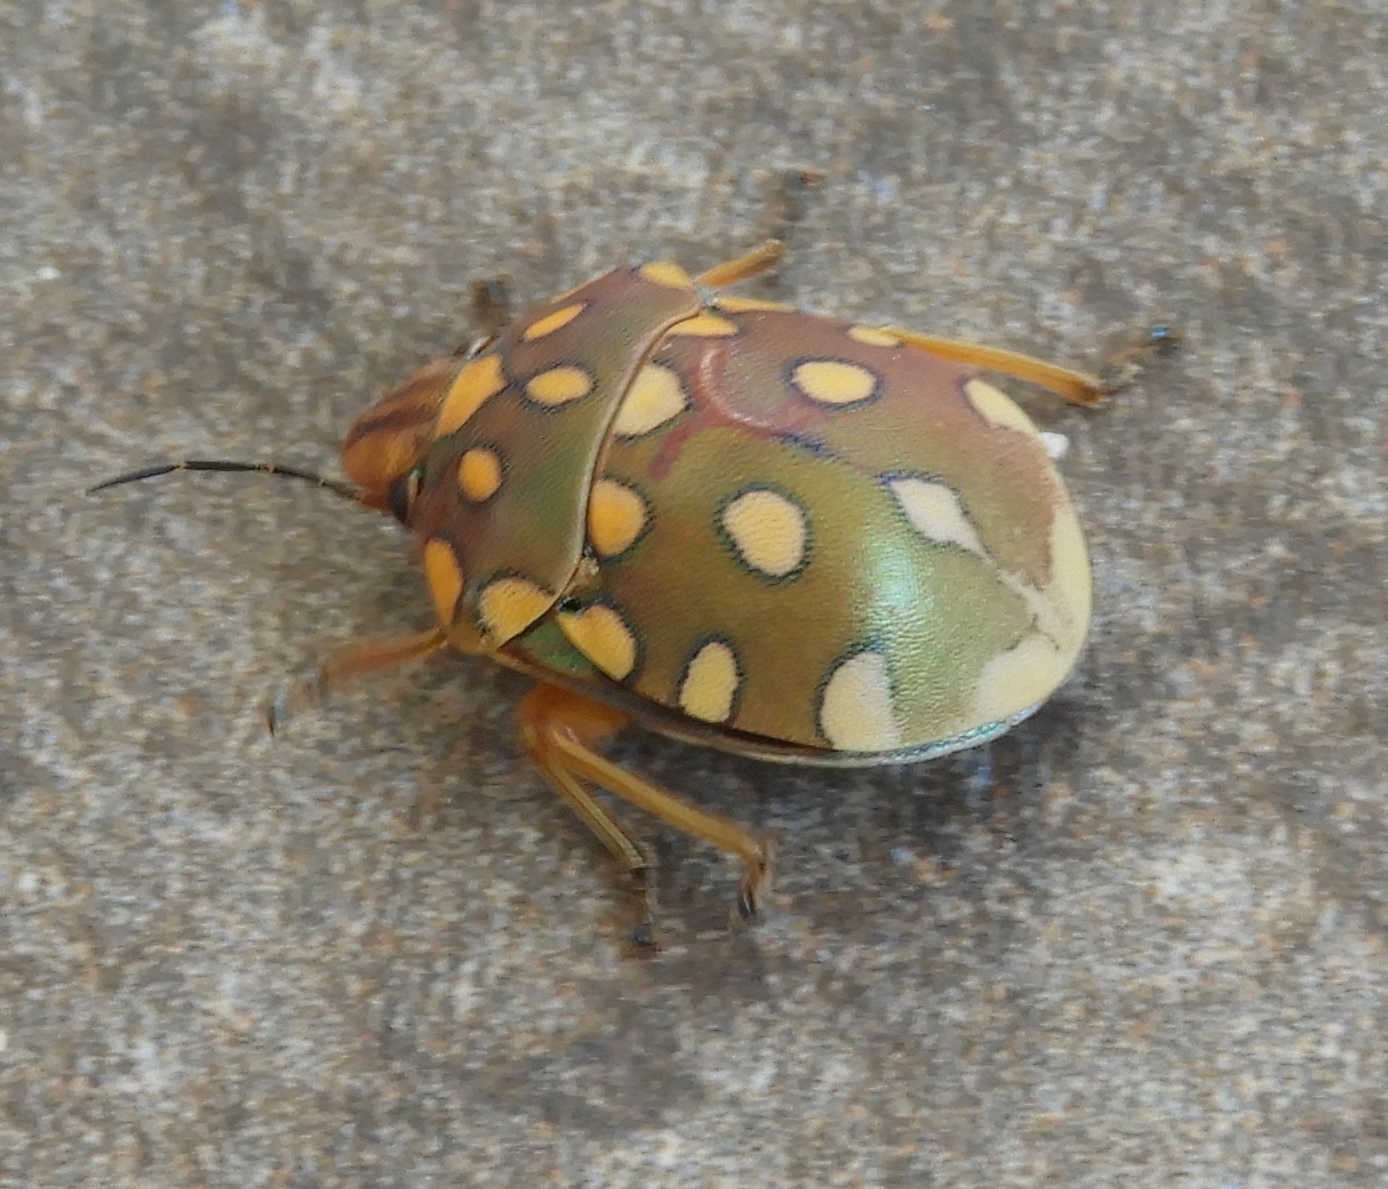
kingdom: Animalia
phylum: Arthropoda
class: Insecta
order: Hemiptera
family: Scutelleridae
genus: Pachycoris
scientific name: Pachycoris torridus
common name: Torrid jewel bug
